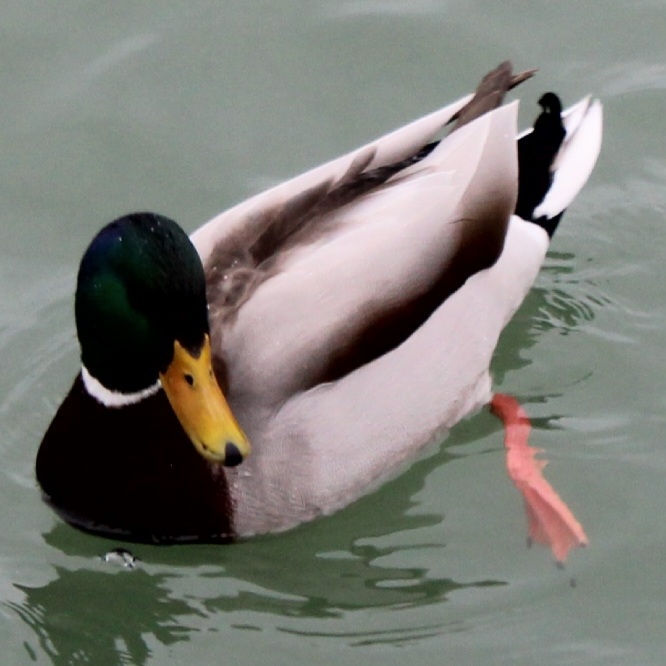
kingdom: Animalia
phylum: Chordata
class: Aves
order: Anseriformes
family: Anatidae
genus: Anas
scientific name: Anas platyrhynchos
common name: Mallard
